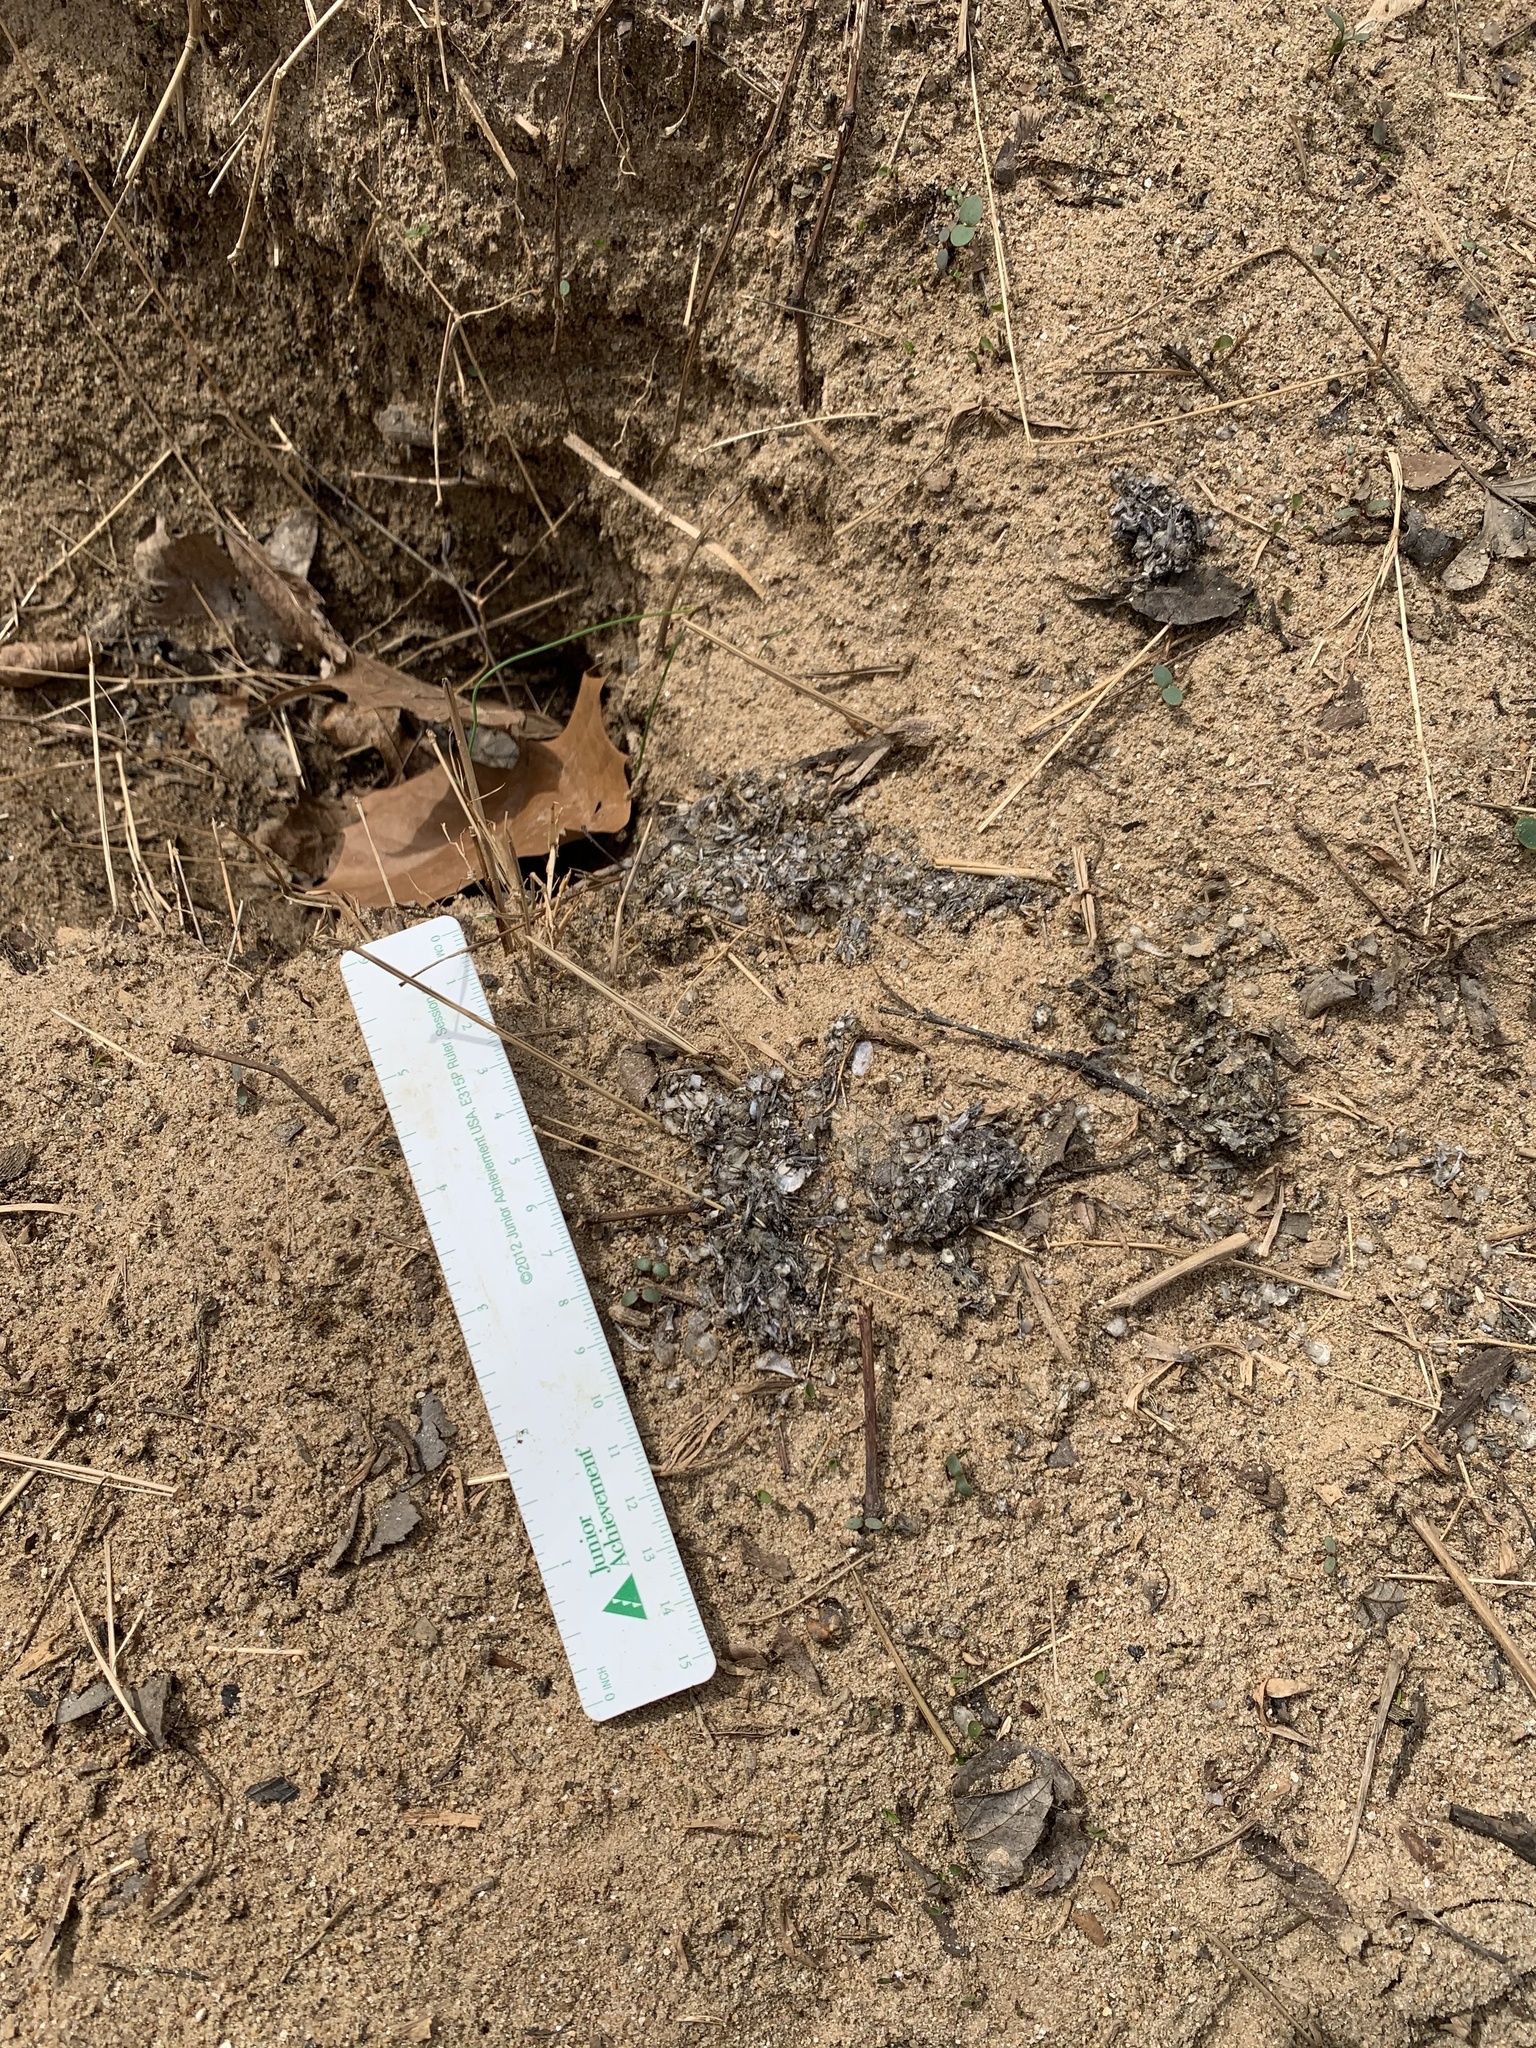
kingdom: Animalia
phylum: Chordata
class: Mammalia
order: Carnivora
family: Mustelidae
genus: Lontra
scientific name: Lontra canadensis
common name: North american river otter
